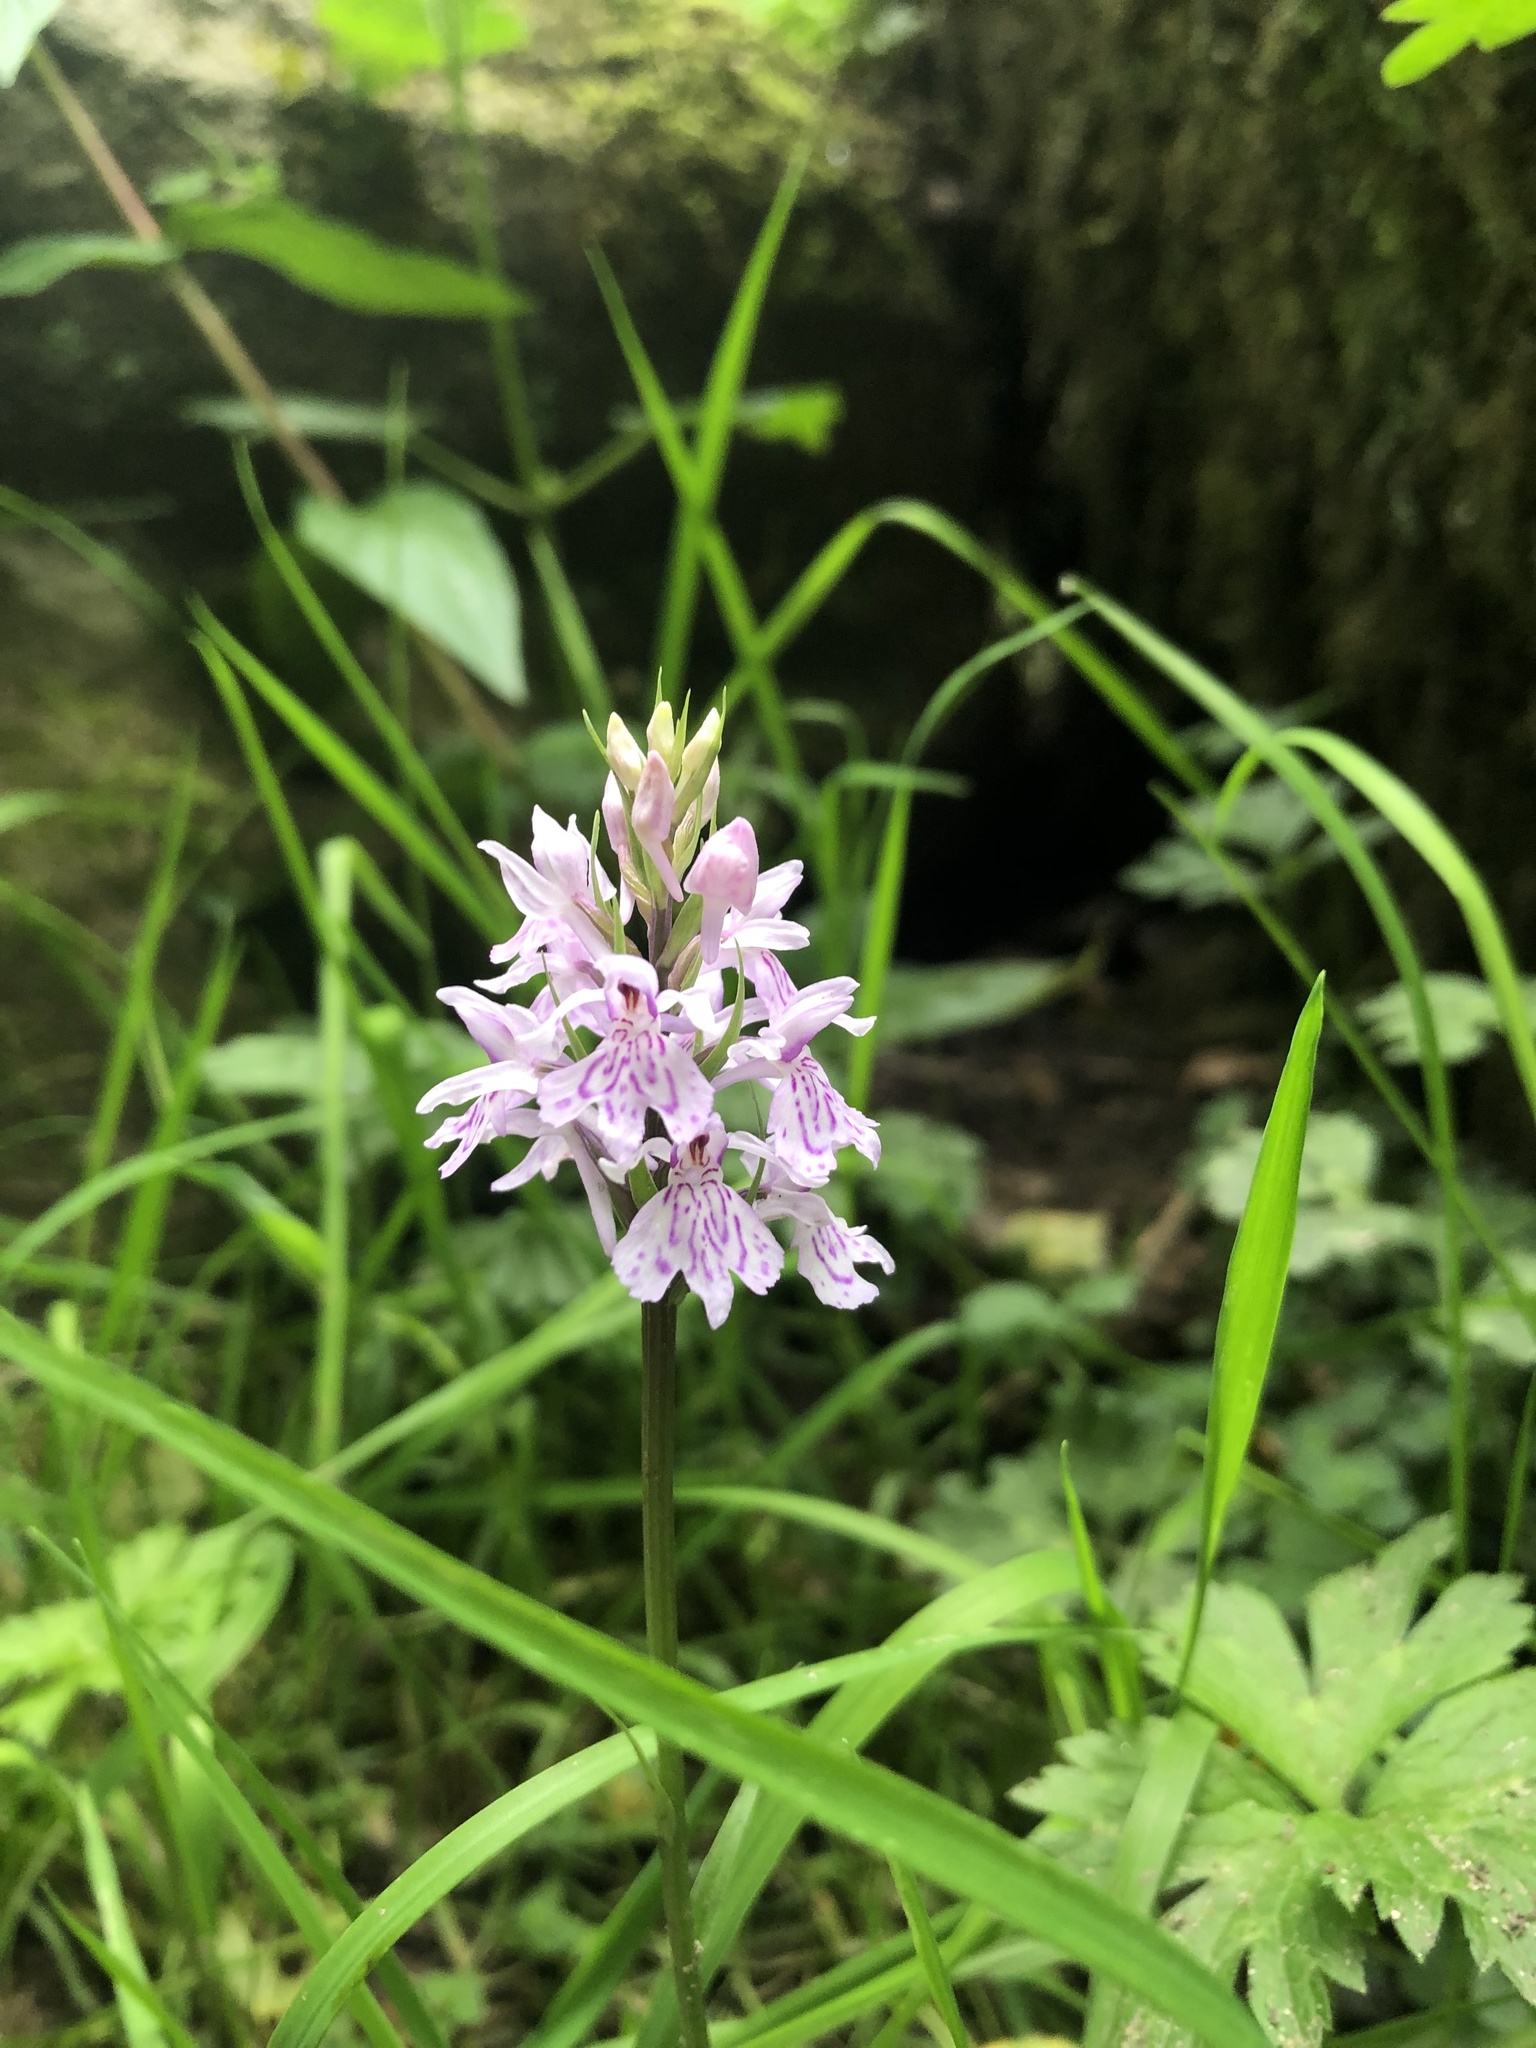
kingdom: Plantae
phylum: Tracheophyta
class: Liliopsida
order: Asparagales
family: Orchidaceae
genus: Dactylorhiza
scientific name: Dactylorhiza maculata
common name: Heath spotted-orchid
